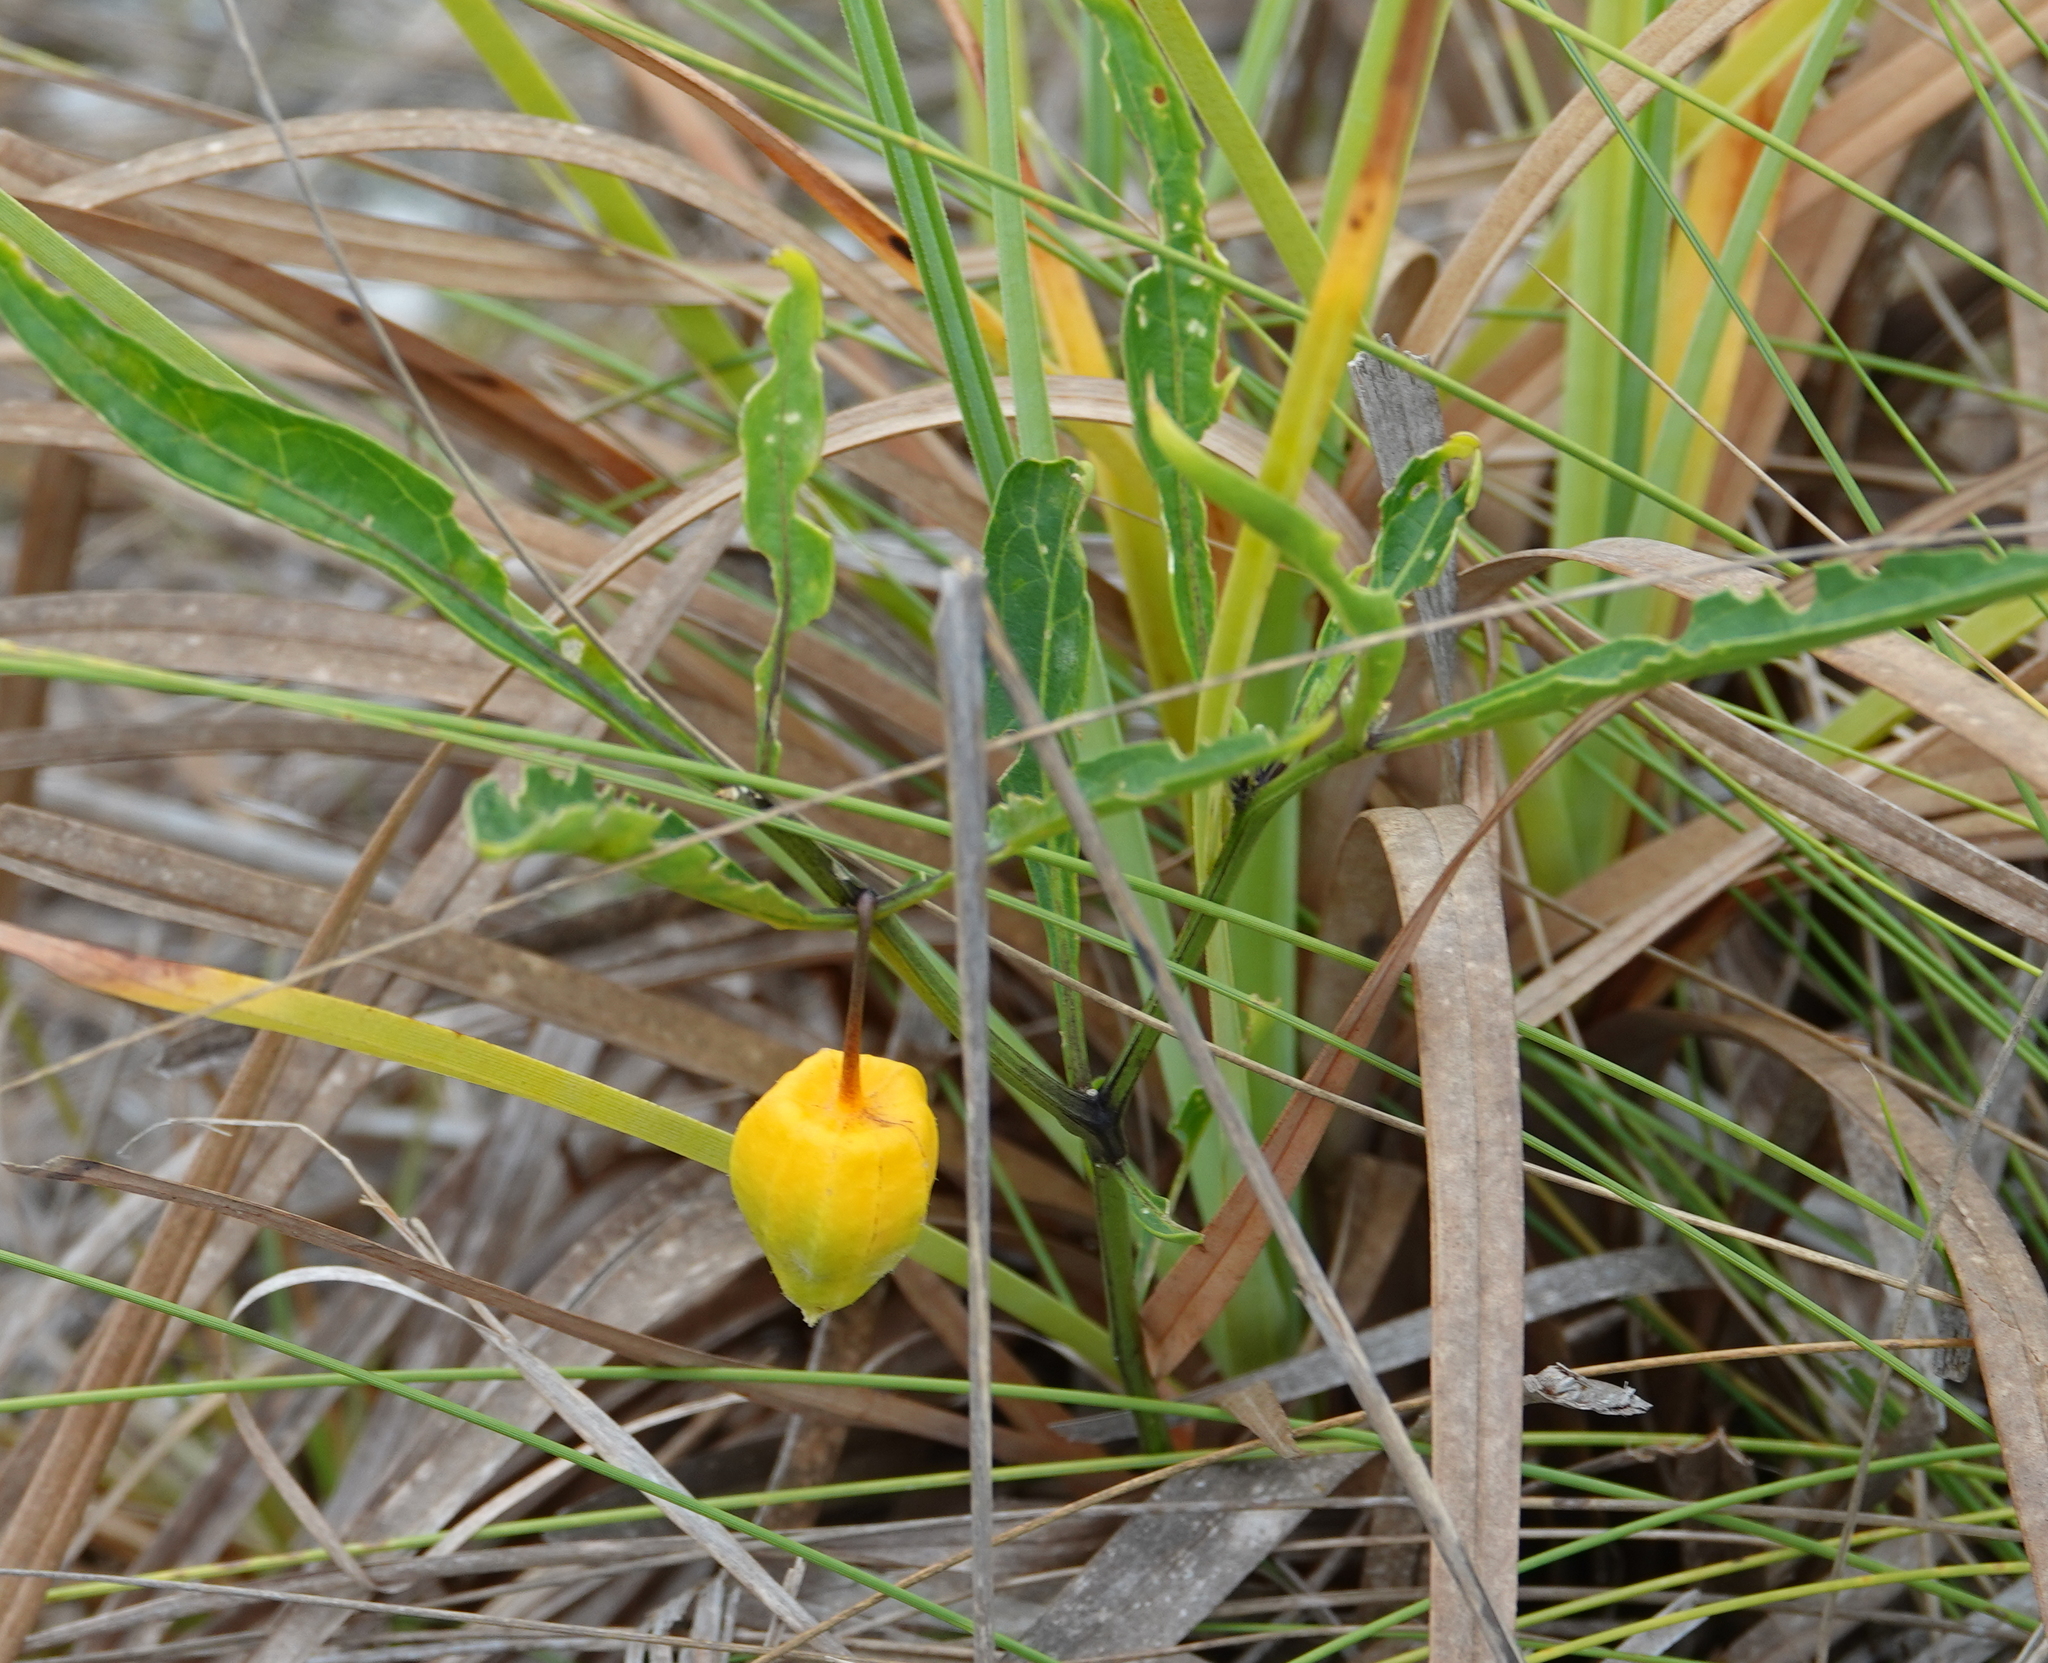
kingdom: Plantae
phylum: Tracheophyta
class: Magnoliopsida
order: Solanales
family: Solanaceae
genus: Physalis
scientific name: Physalis walteri
